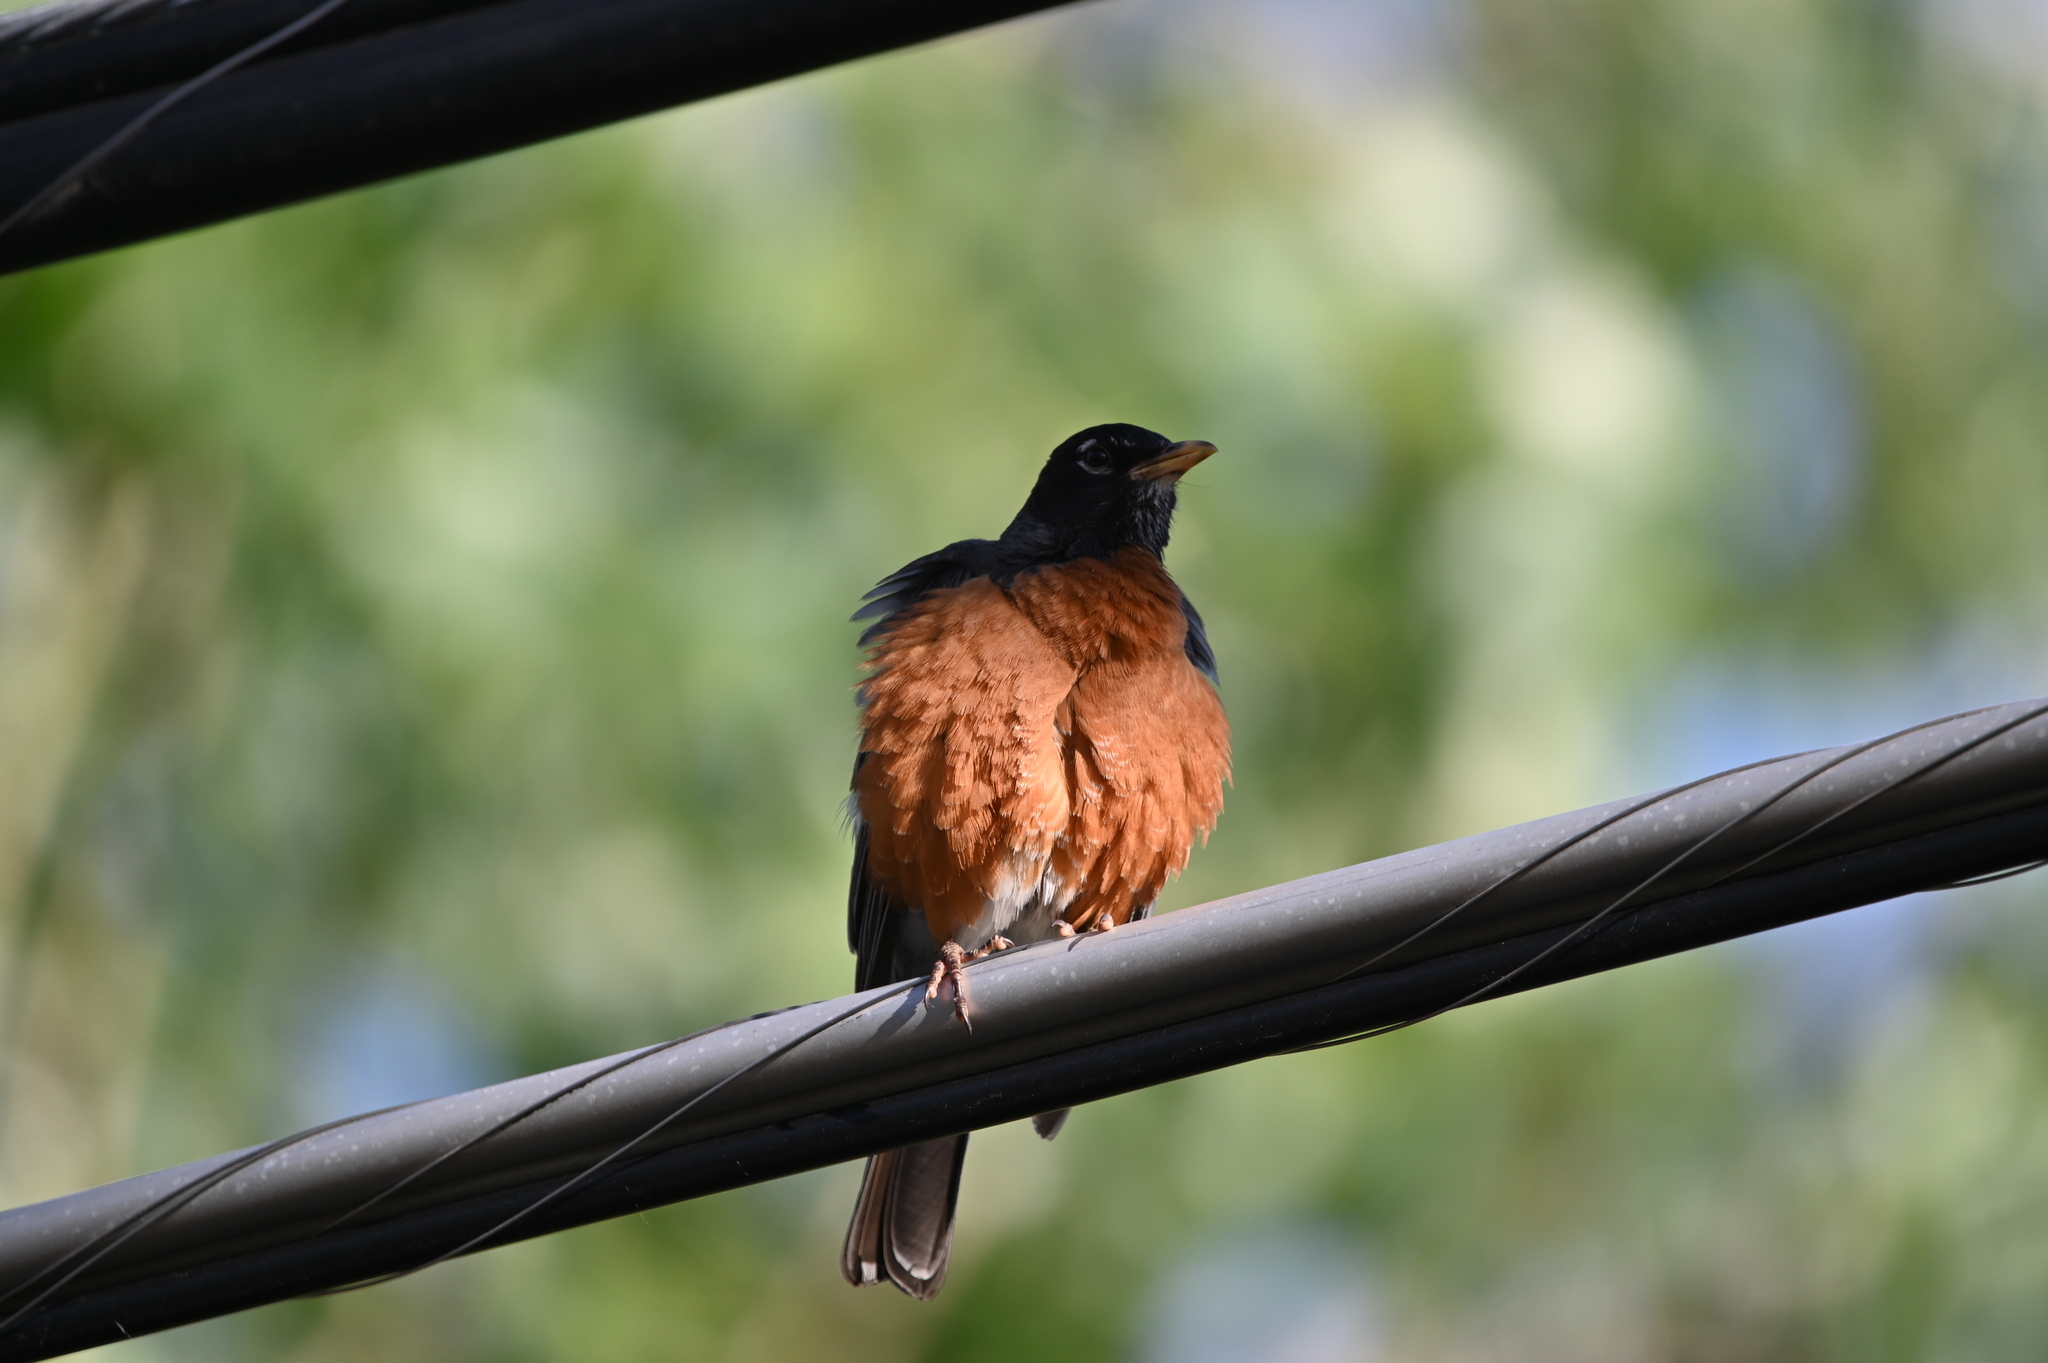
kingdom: Animalia
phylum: Chordata
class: Aves
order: Passeriformes
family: Turdidae
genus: Turdus
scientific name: Turdus migratorius
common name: American robin
